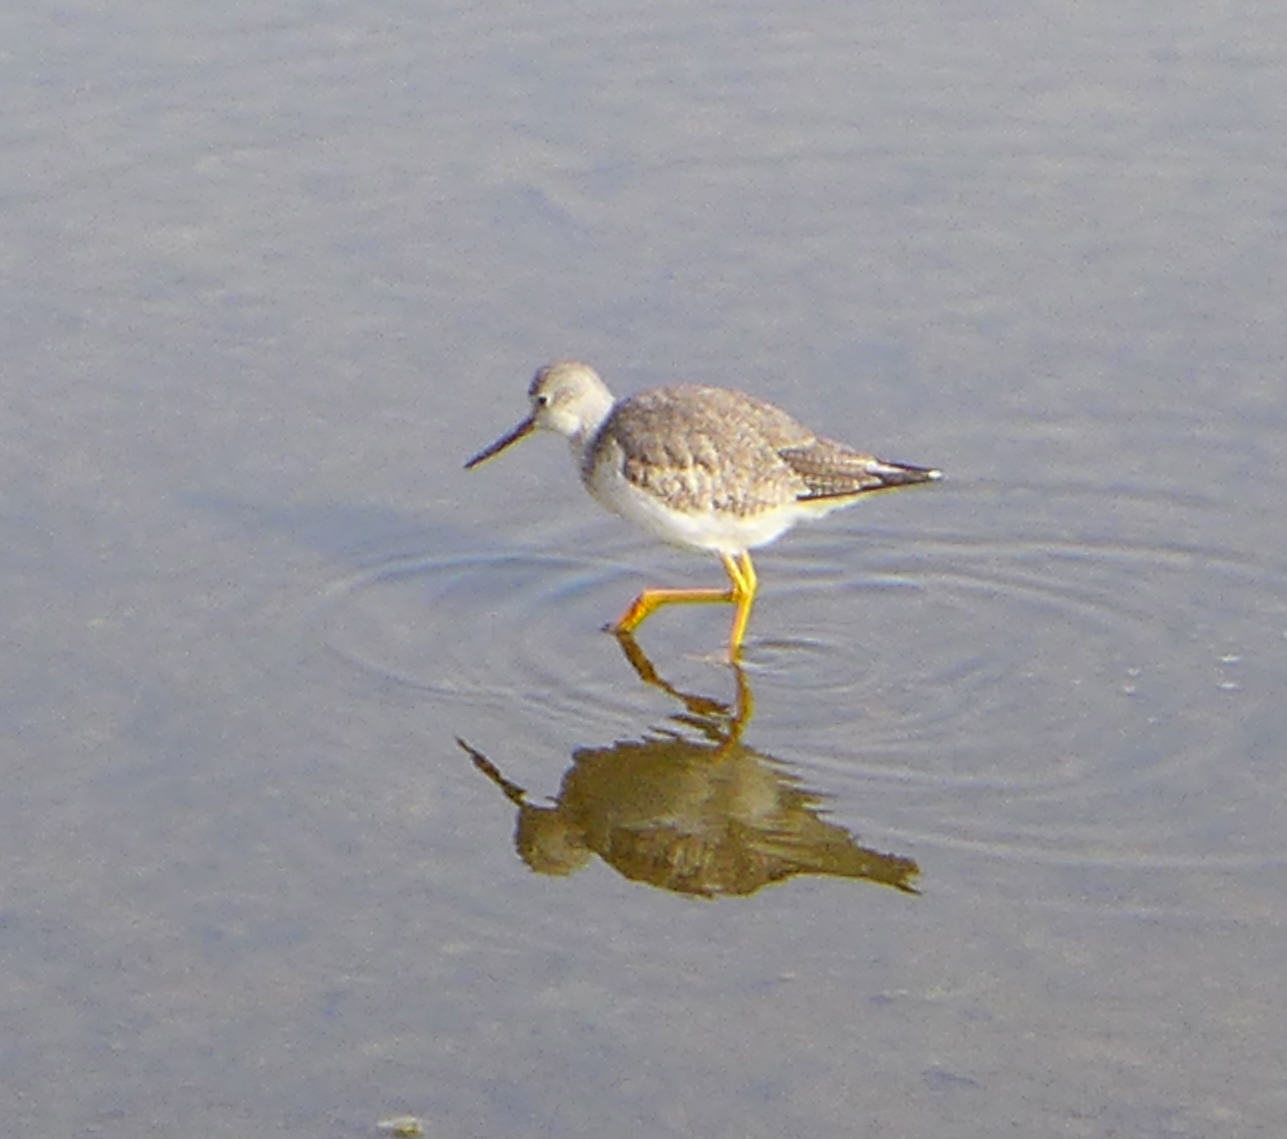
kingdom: Animalia
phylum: Chordata
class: Aves
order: Charadriiformes
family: Scolopacidae
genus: Tringa
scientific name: Tringa melanoleuca
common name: Greater yellowlegs
